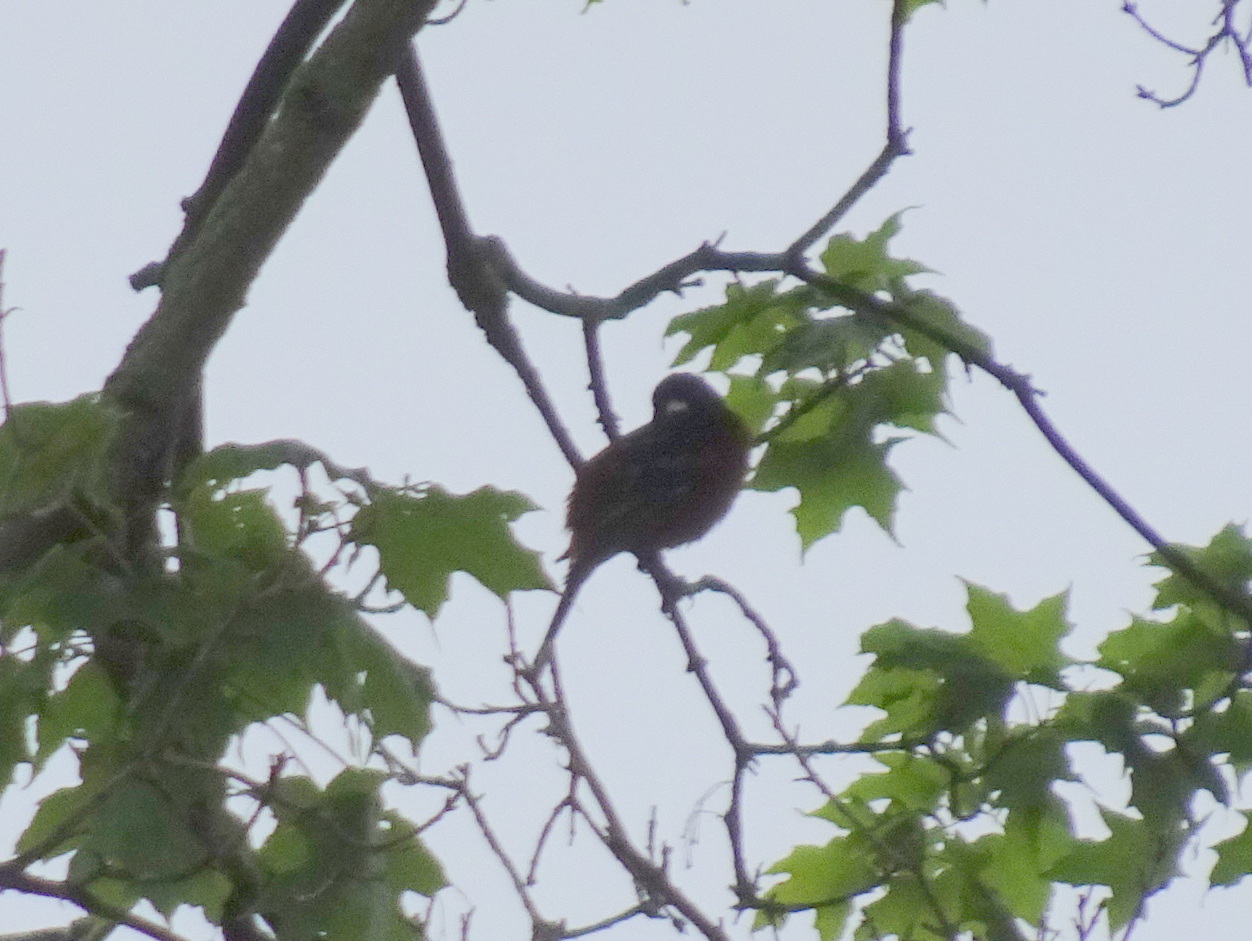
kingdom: Animalia
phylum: Chordata
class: Aves
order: Passeriformes
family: Icteridae
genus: Icterus
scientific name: Icterus spurius
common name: Orchard oriole
